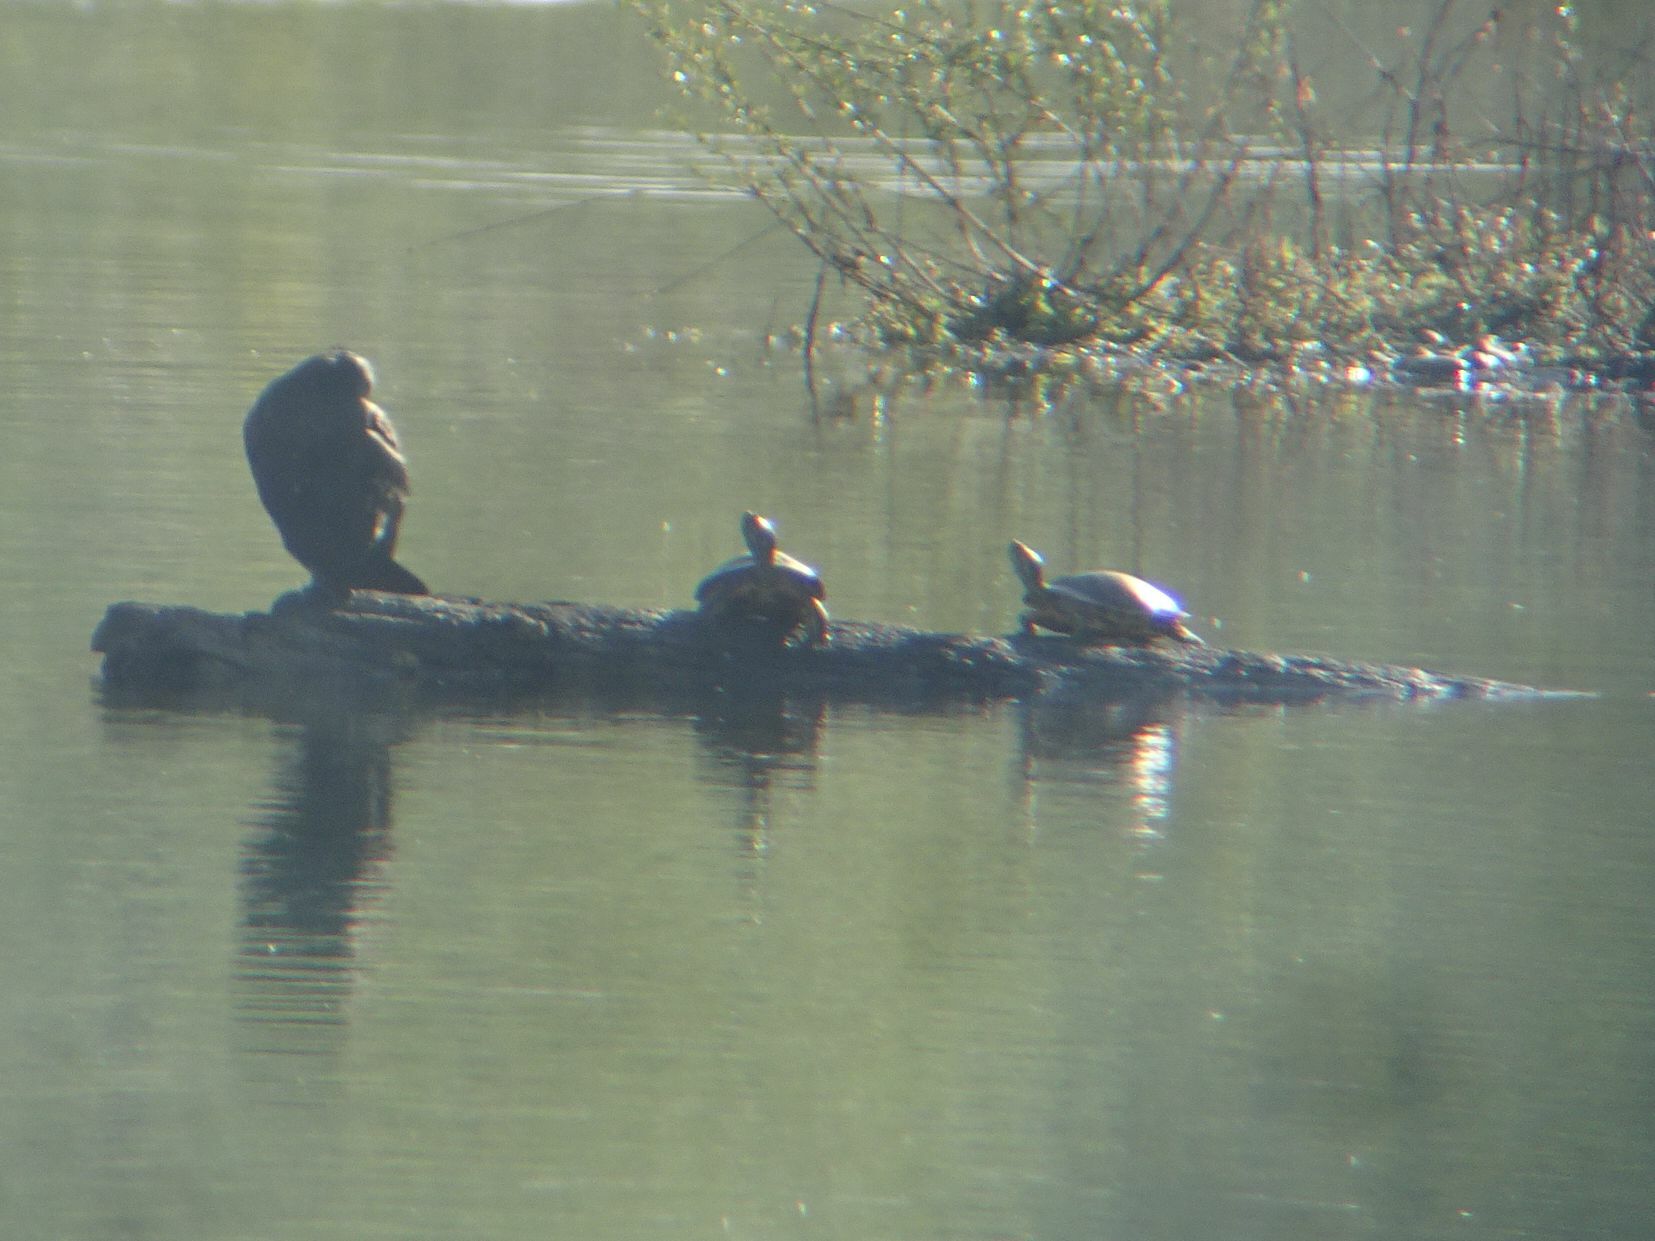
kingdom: Animalia
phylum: Chordata
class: Testudines
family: Emydidae
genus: Trachemys
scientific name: Trachemys scripta
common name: Slider
